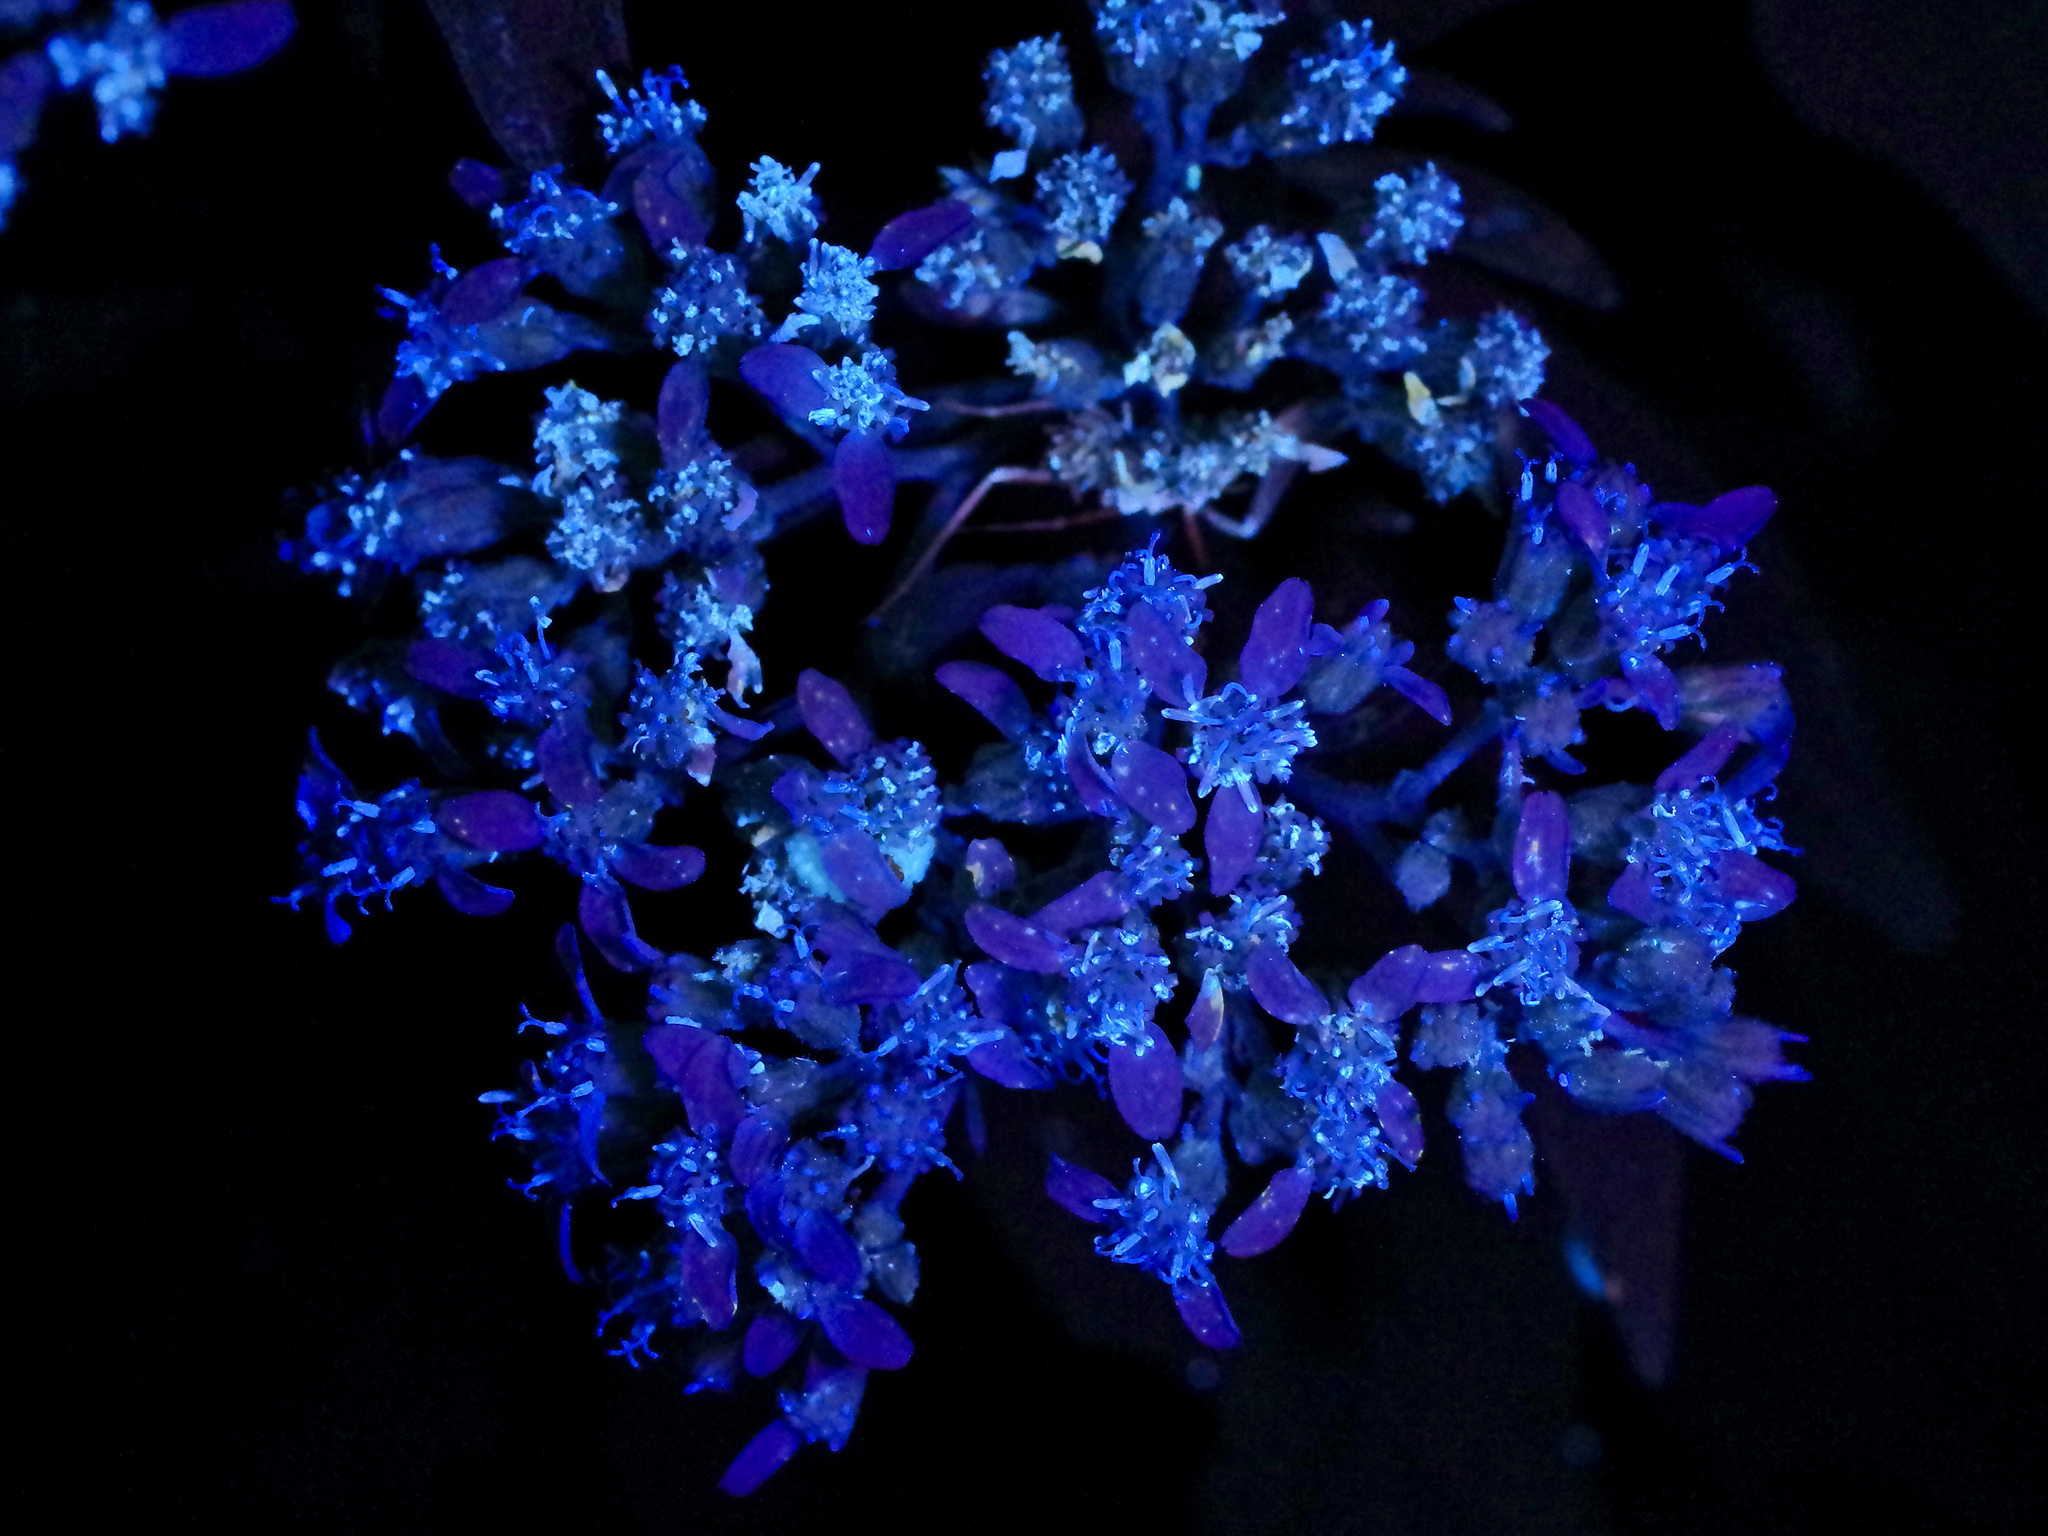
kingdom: Plantae
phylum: Tracheophyta
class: Magnoliopsida
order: Asterales
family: Asteraceae
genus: Verbesina
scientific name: Verbesina virginica
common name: Frostweed
